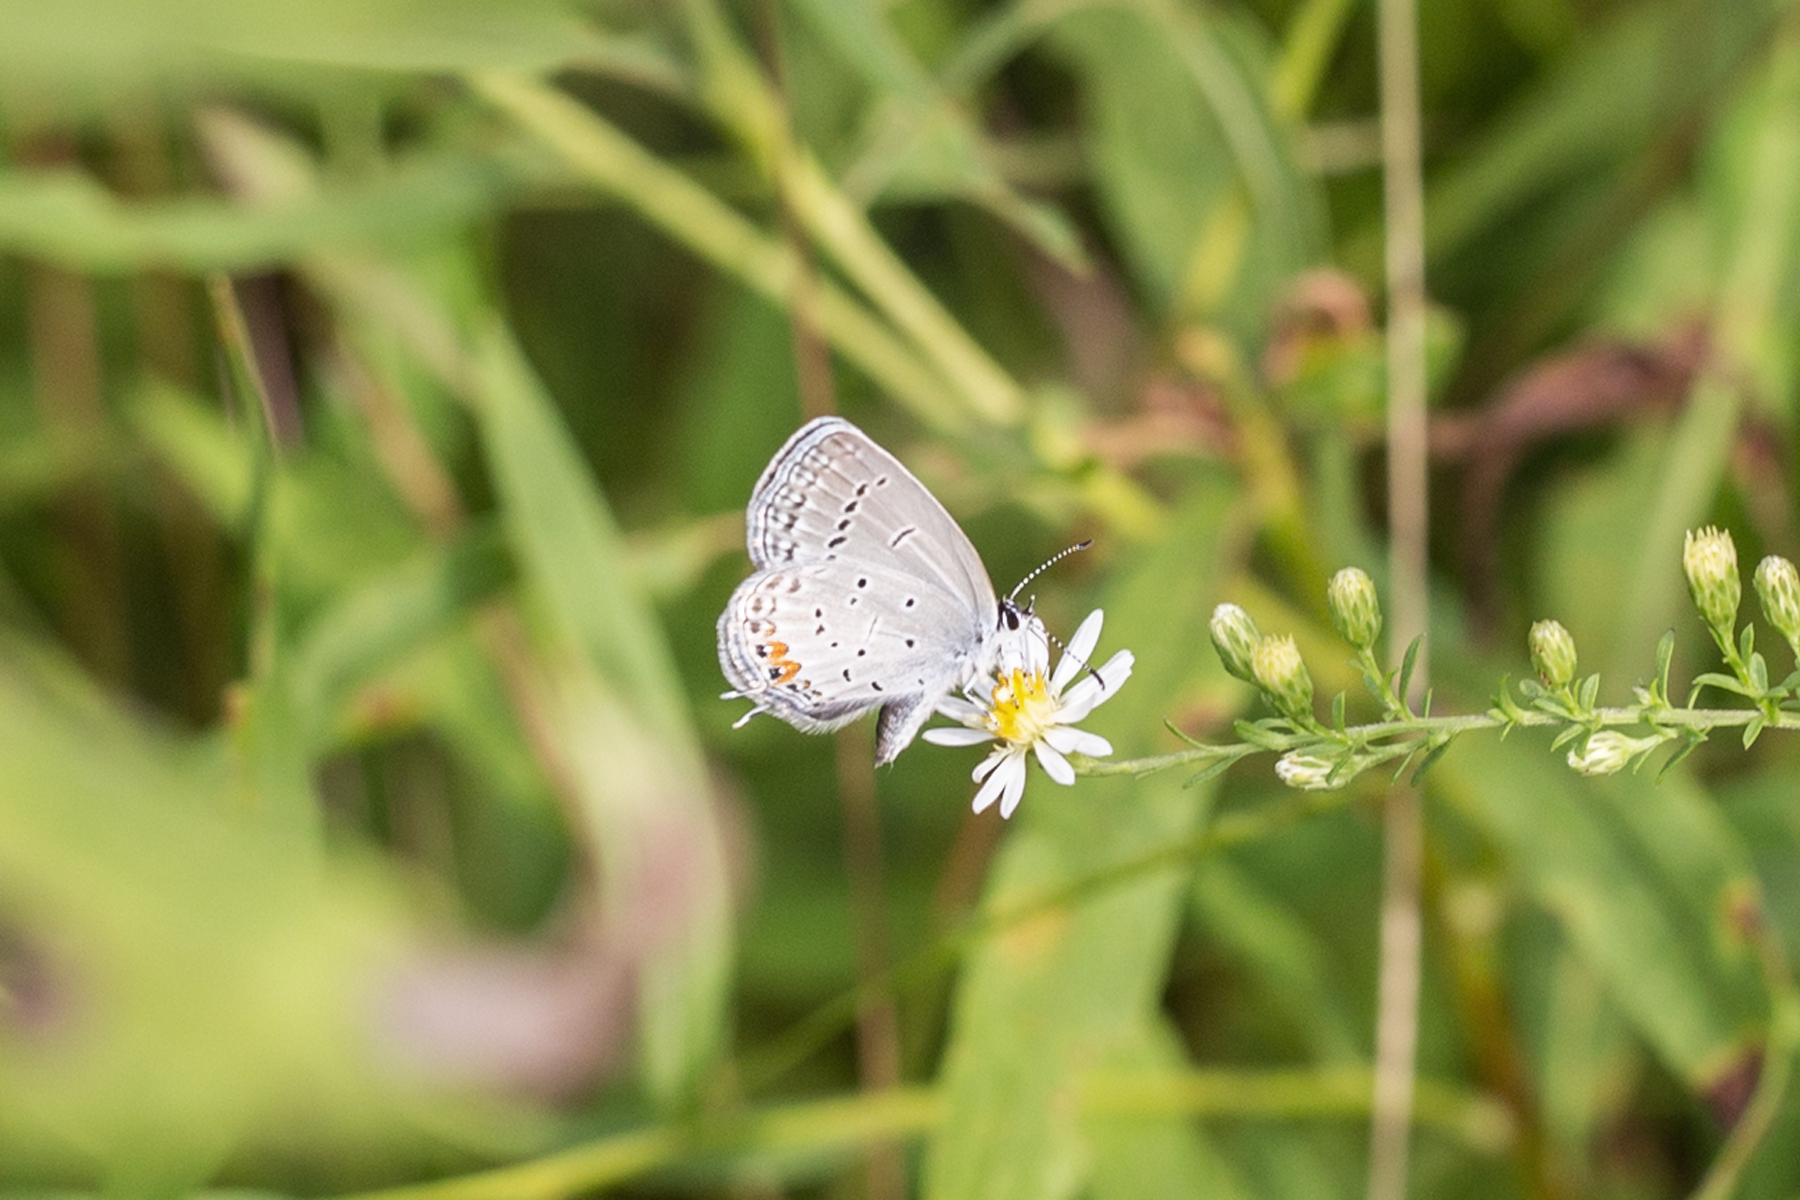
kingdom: Animalia
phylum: Arthropoda
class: Insecta
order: Lepidoptera
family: Lycaenidae
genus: Elkalyce
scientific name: Elkalyce comyntas
